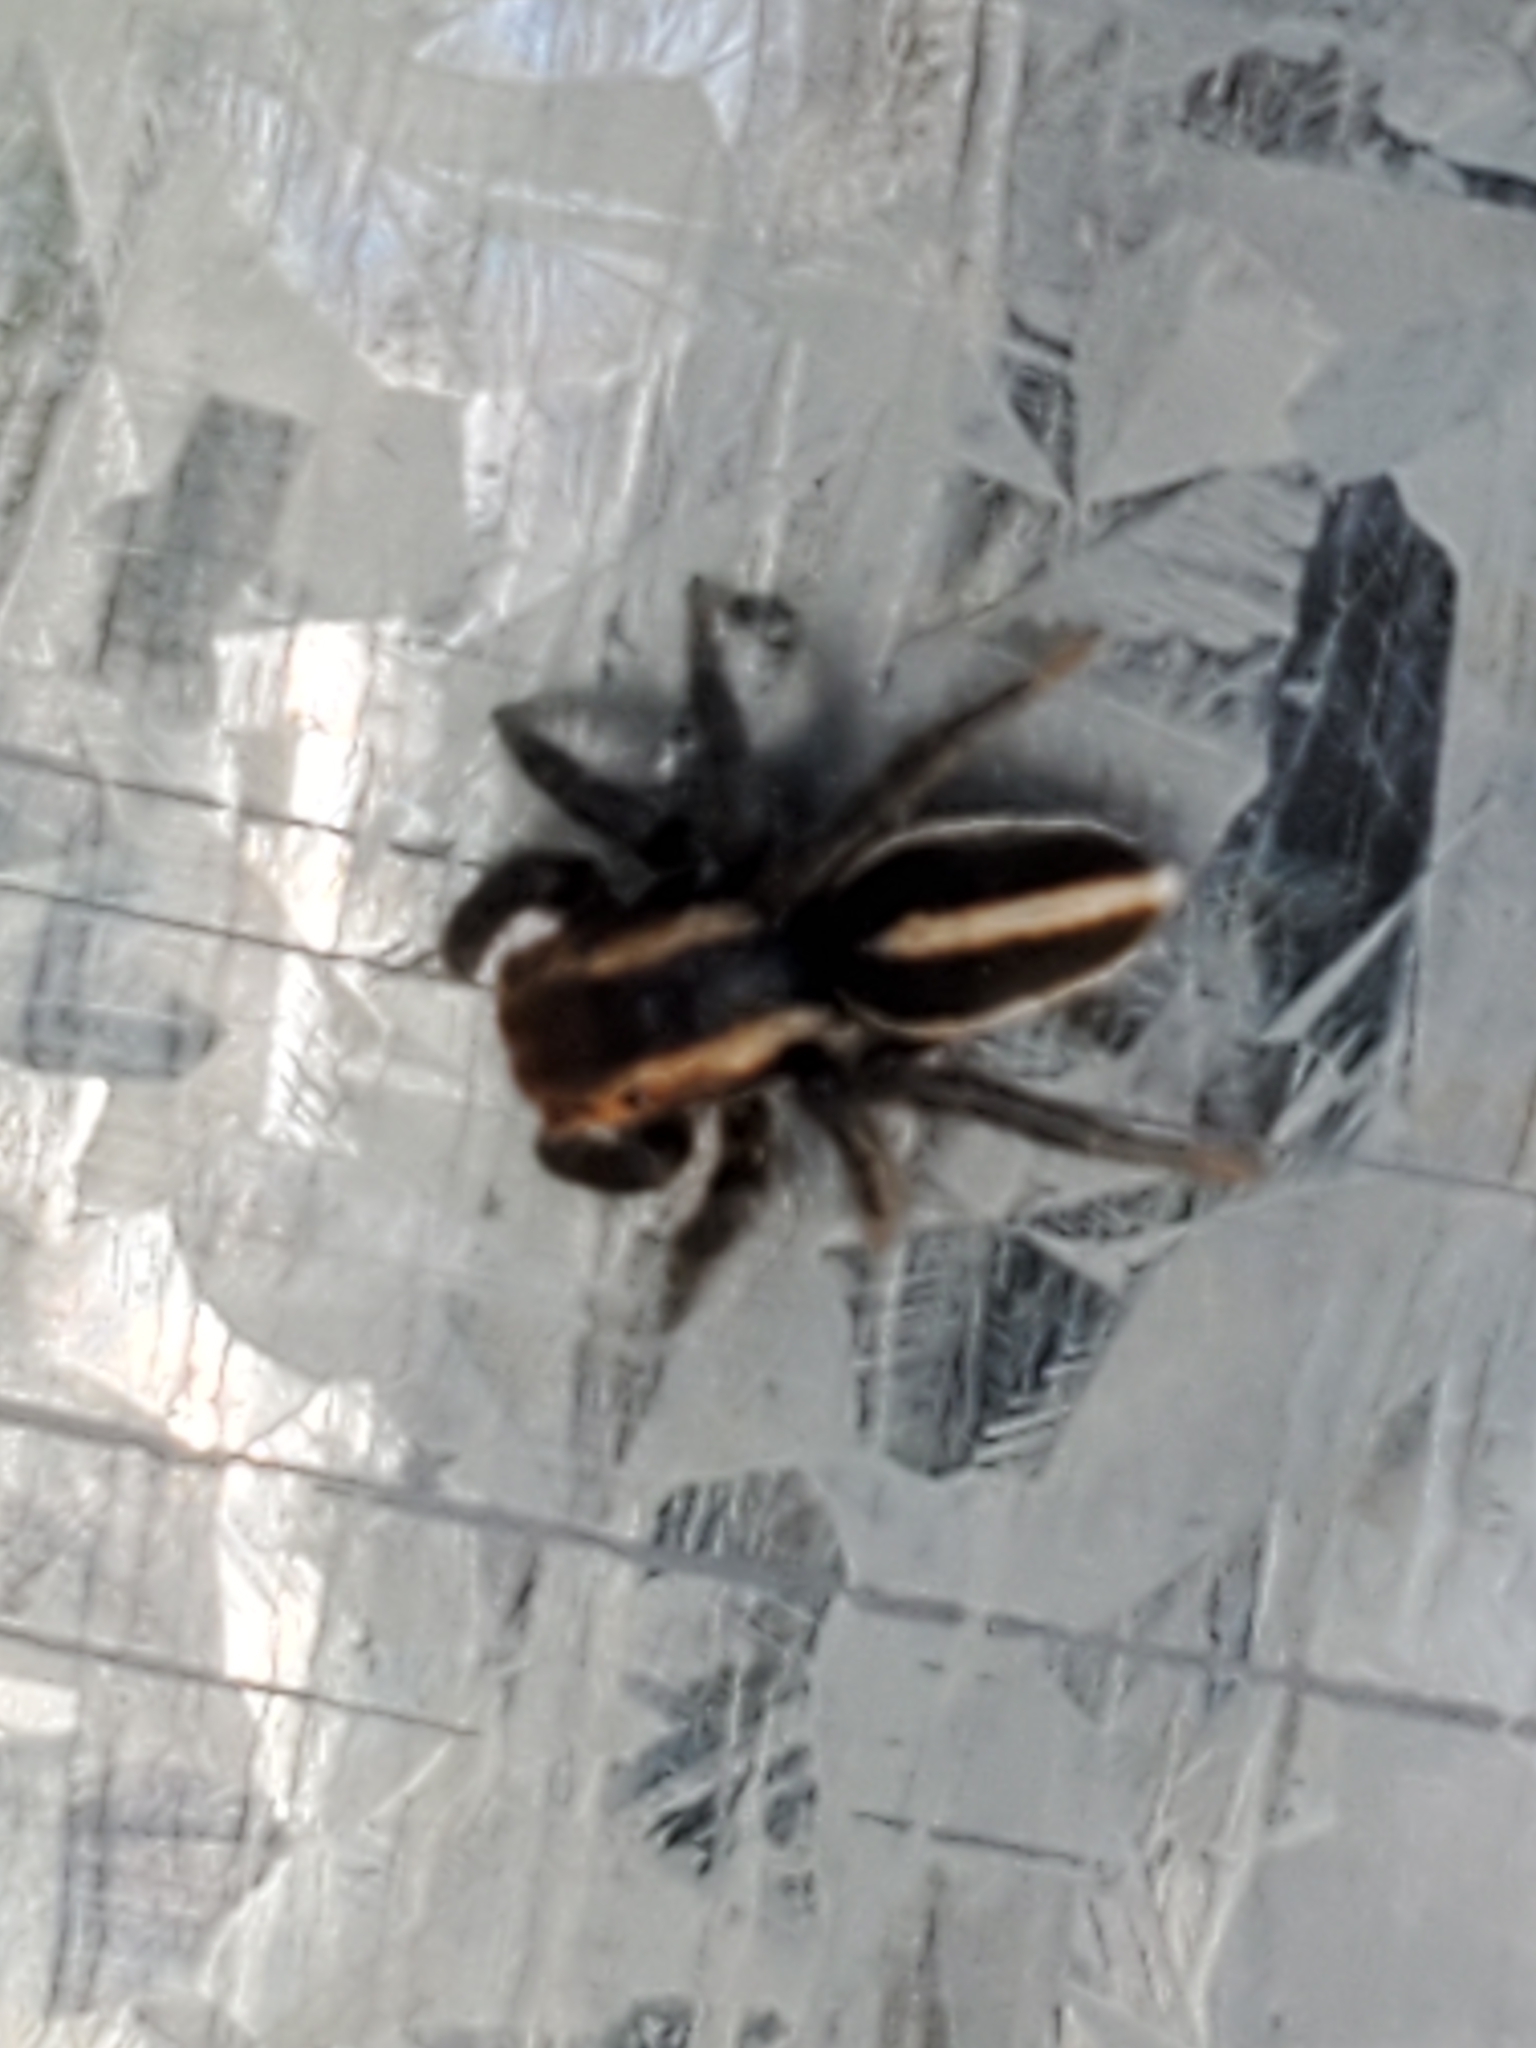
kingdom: Animalia
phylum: Arthropoda
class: Arachnida
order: Araneae
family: Salticidae
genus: Phlegra
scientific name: Phlegra hentzi
